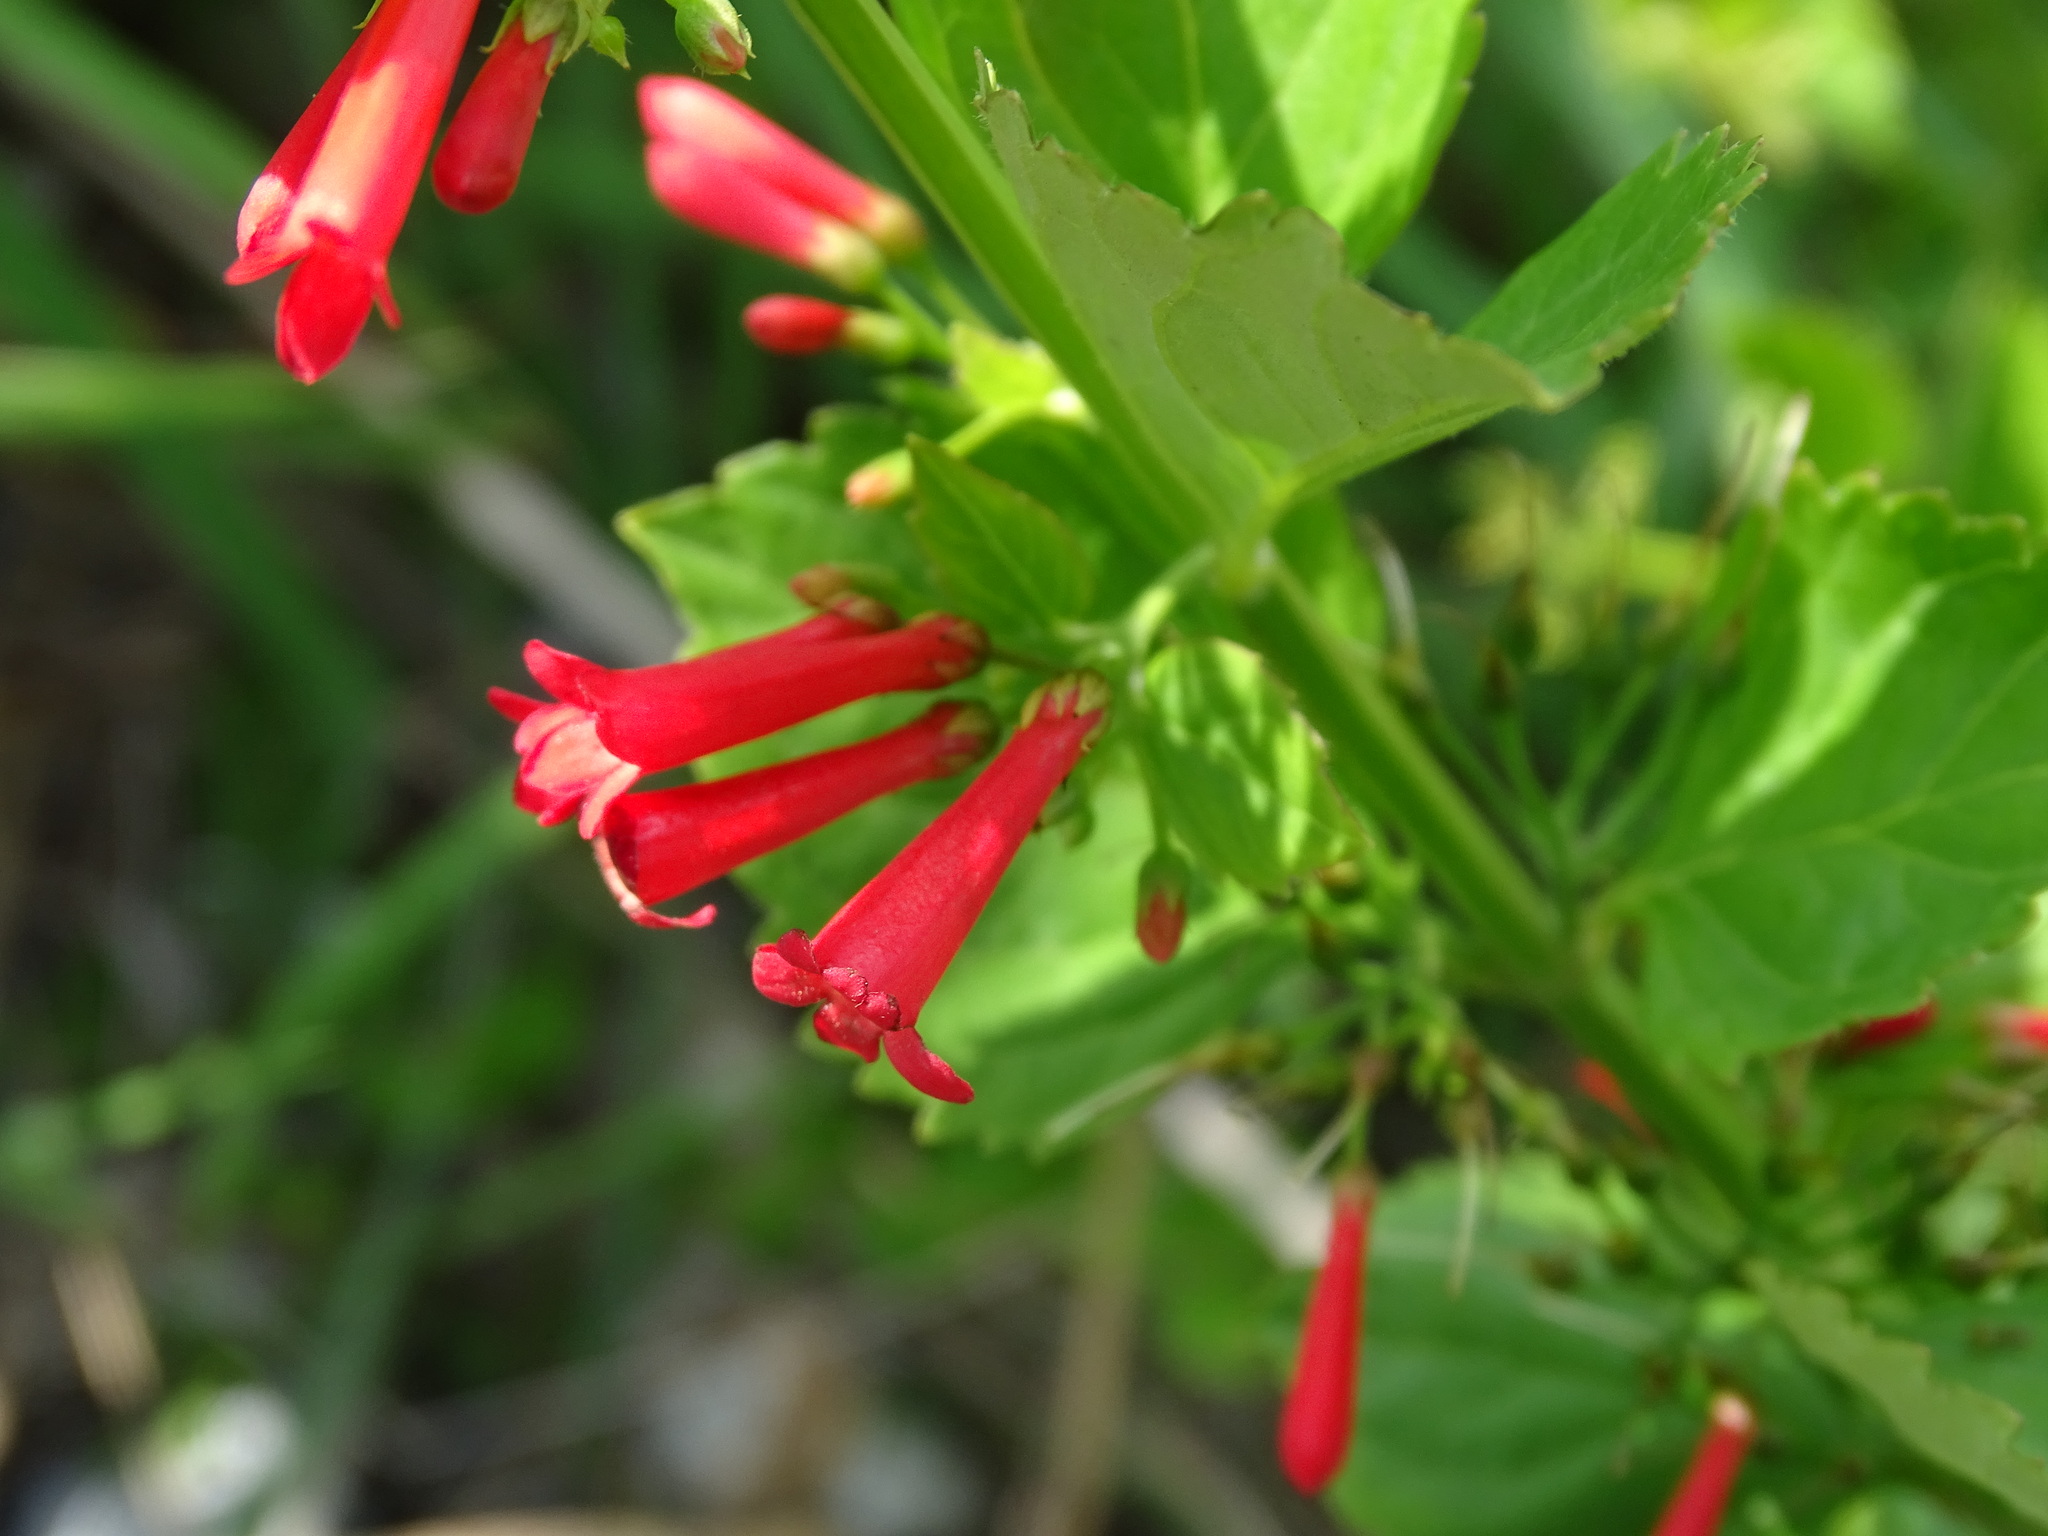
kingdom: Plantae
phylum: Tracheophyta
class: Magnoliopsida
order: Lamiales
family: Plantaginaceae
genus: Russelia
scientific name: Russelia sarmentosa
